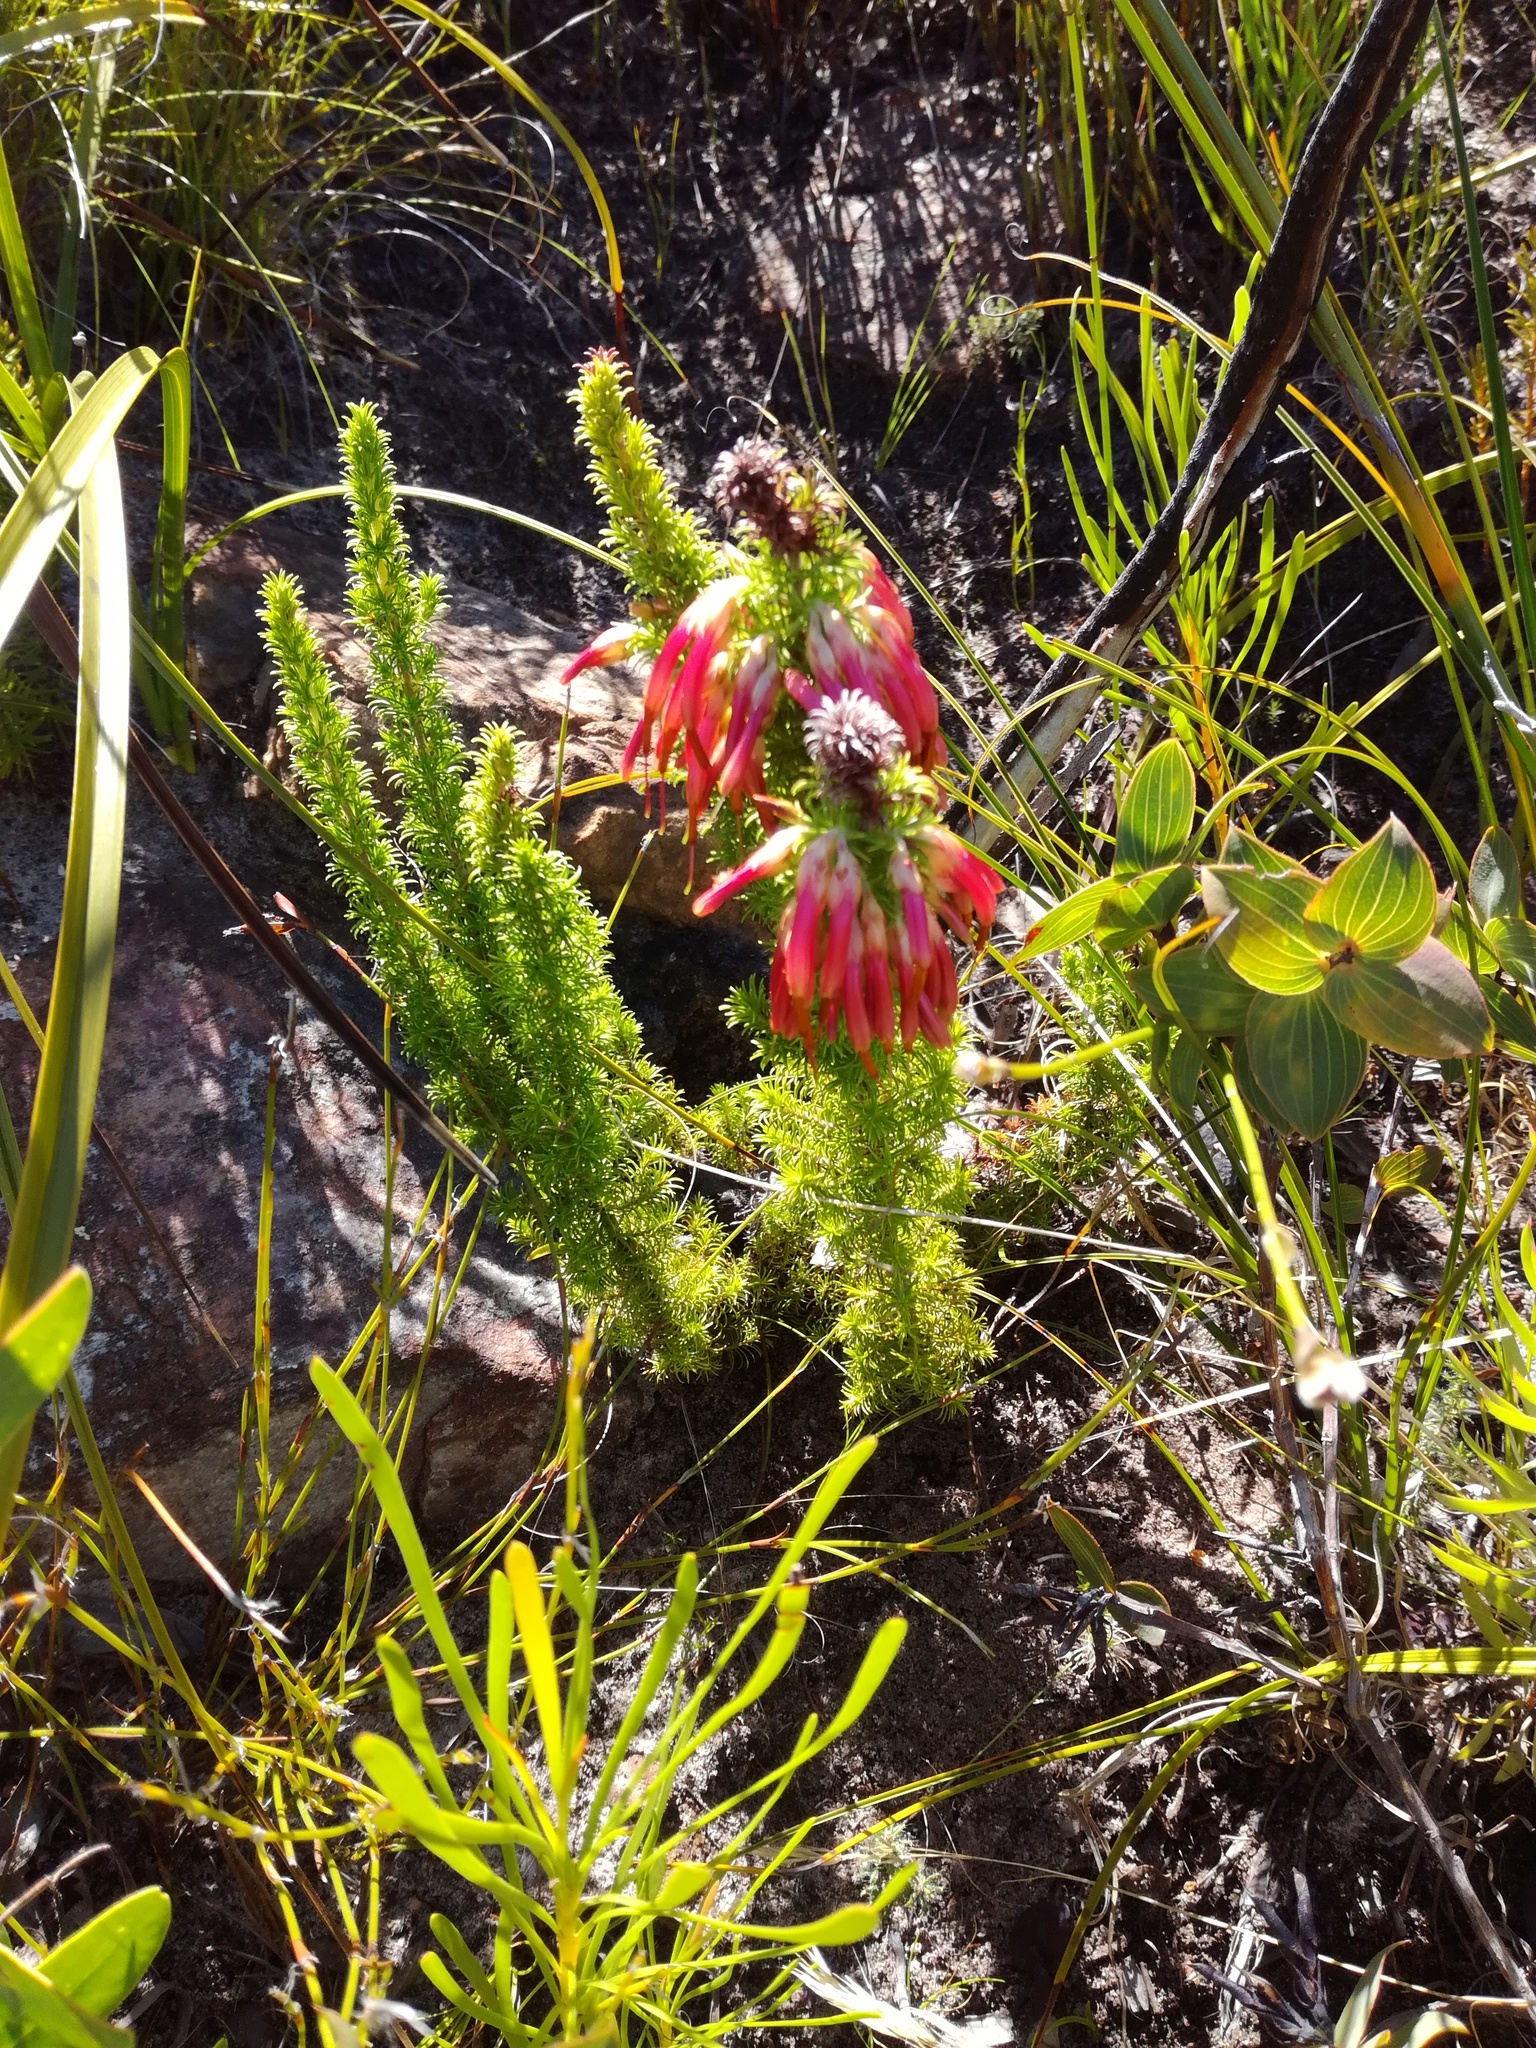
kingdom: Plantae
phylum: Tracheophyta
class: Magnoliopsida
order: Ericales
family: Ericaceae
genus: Erica
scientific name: Erica coccinea
